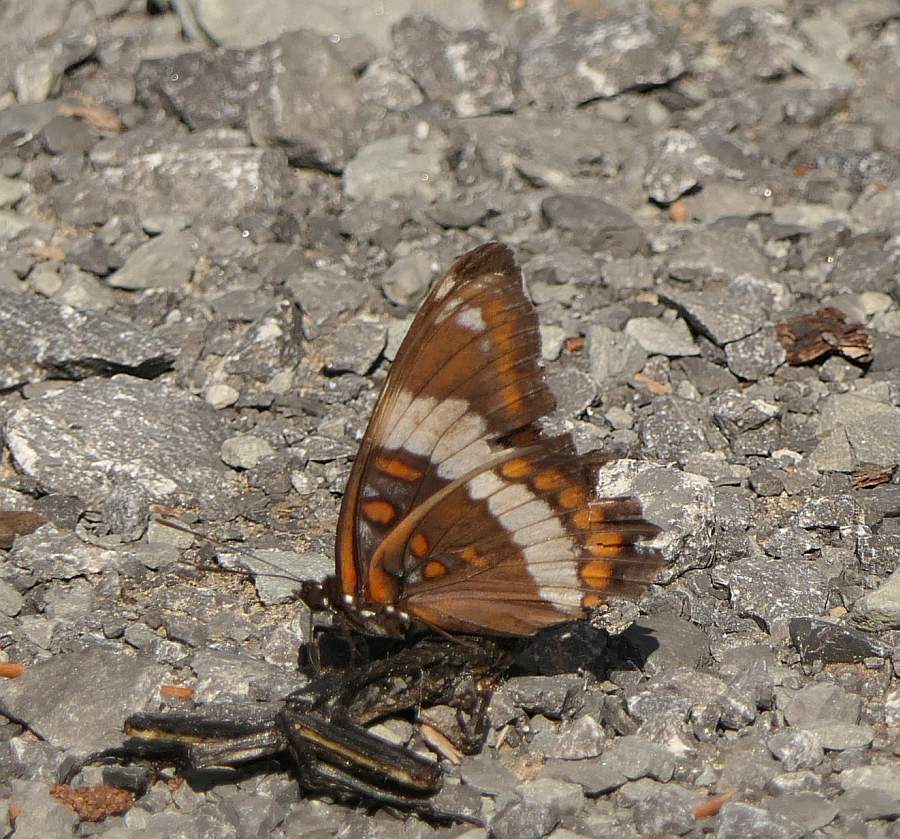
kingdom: Animalia
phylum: Arthropoda
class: Insecta
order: Lepidoptera
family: Nymphalidae
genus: Limenitis
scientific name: Limenitis arthemis
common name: Red-spotted admiral
